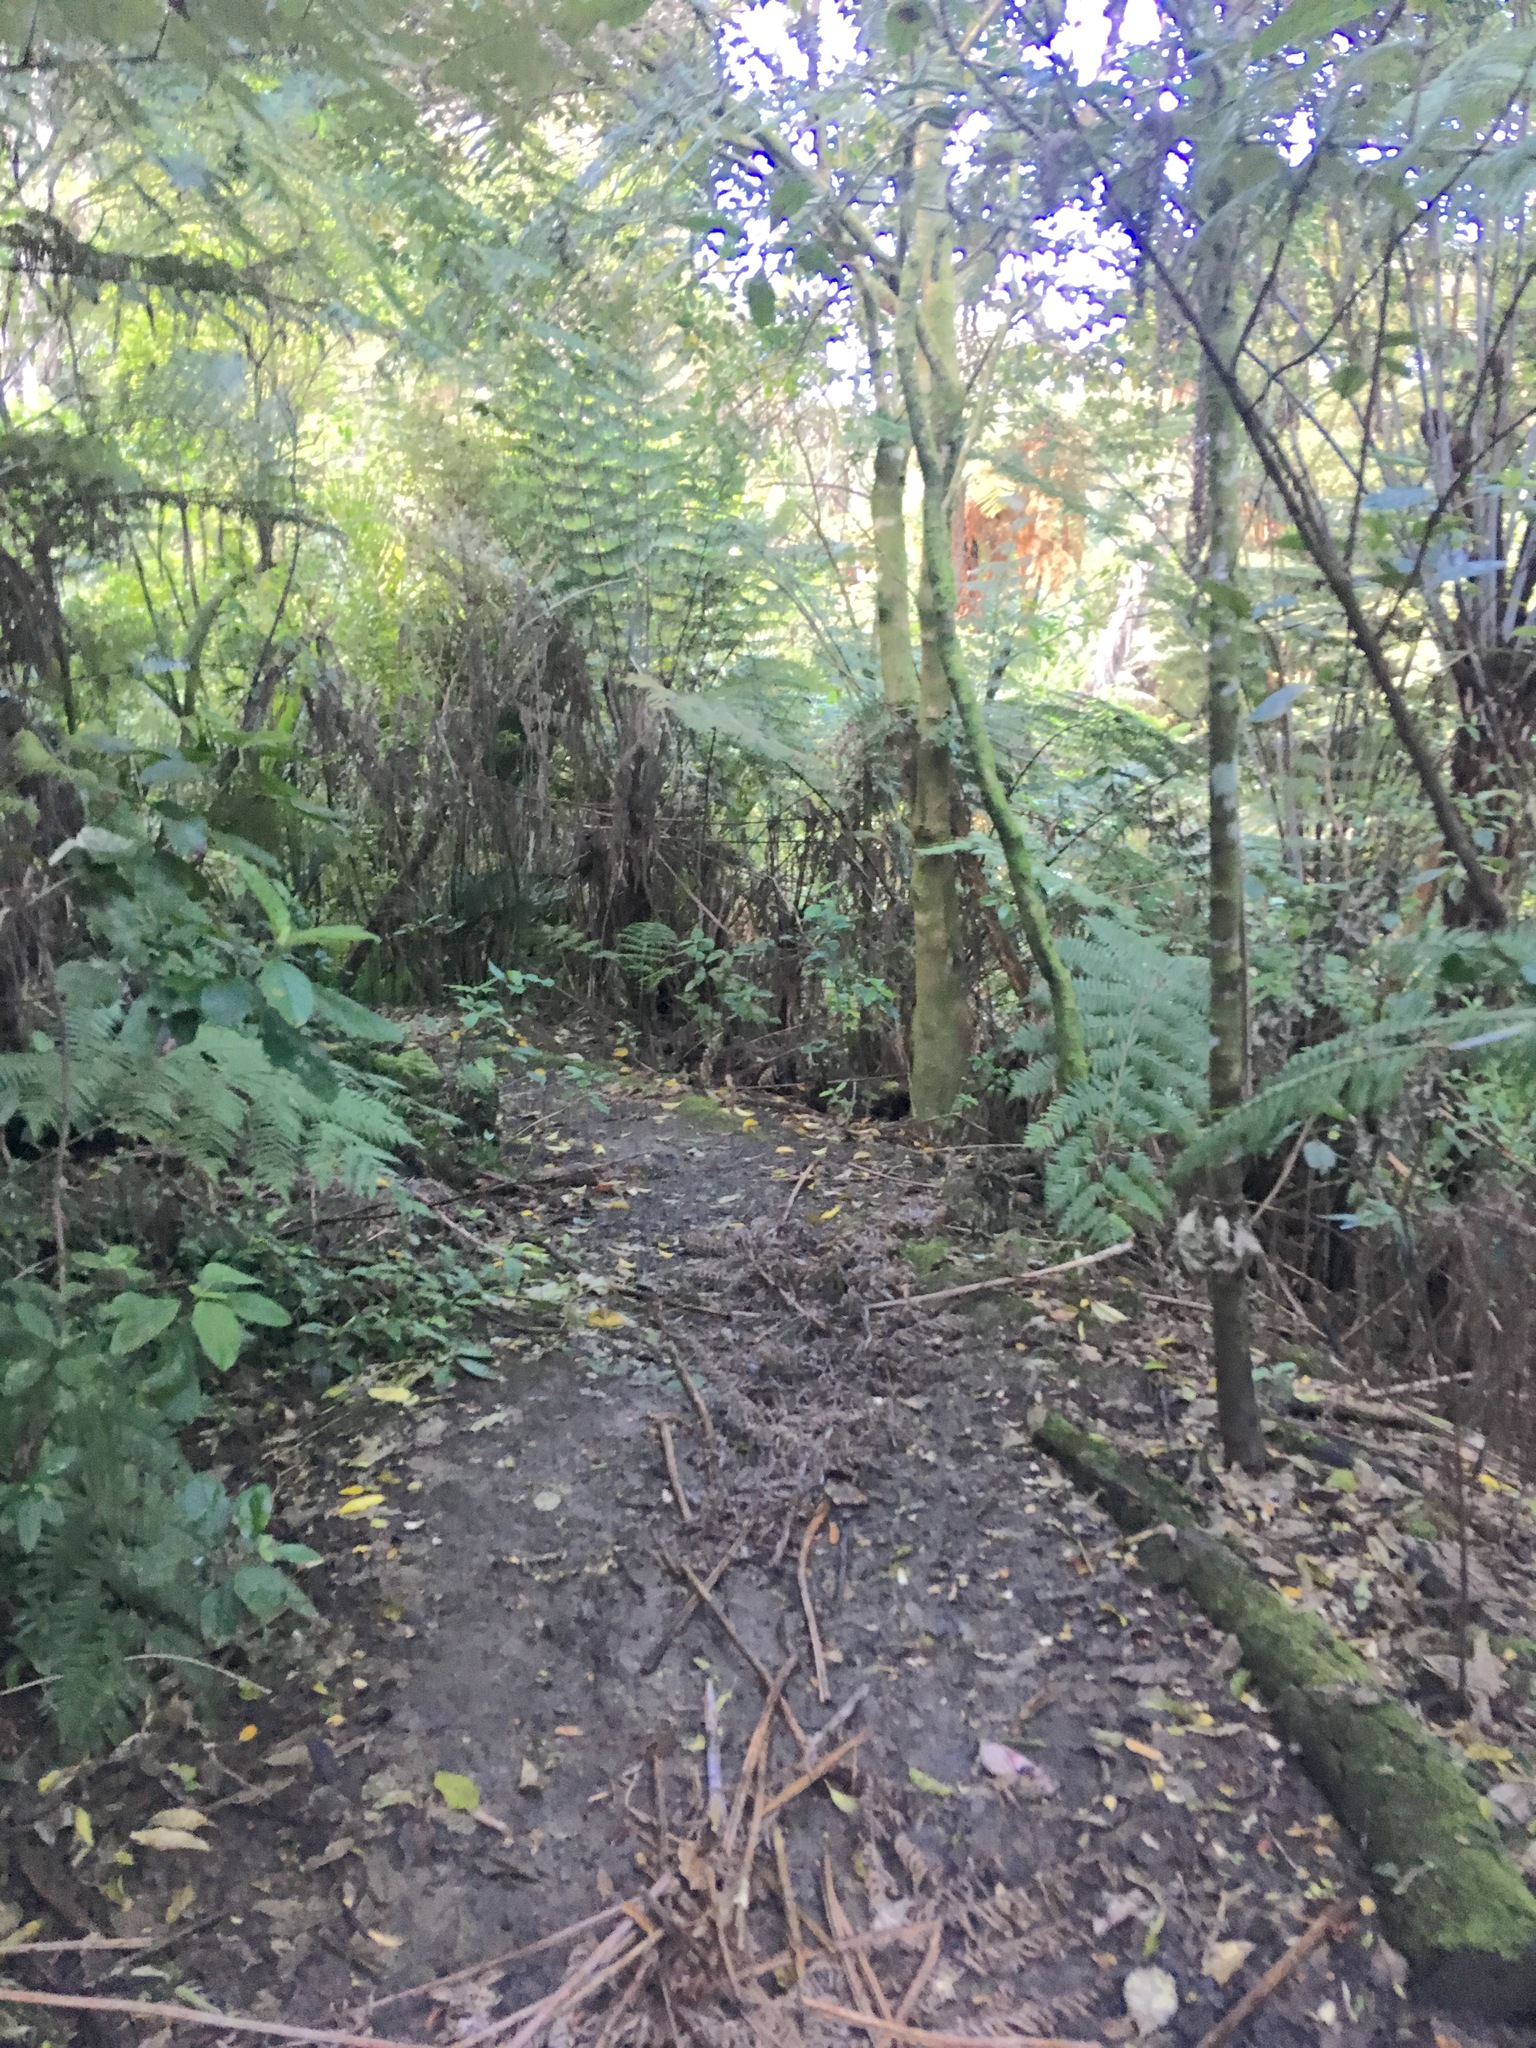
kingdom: Plantae
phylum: Tracheophyta
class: Magnoliopsida
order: Lamiales
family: Oleaceae
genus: Ligustrum
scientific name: Ligustrum lucidum
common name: Glossy privet
